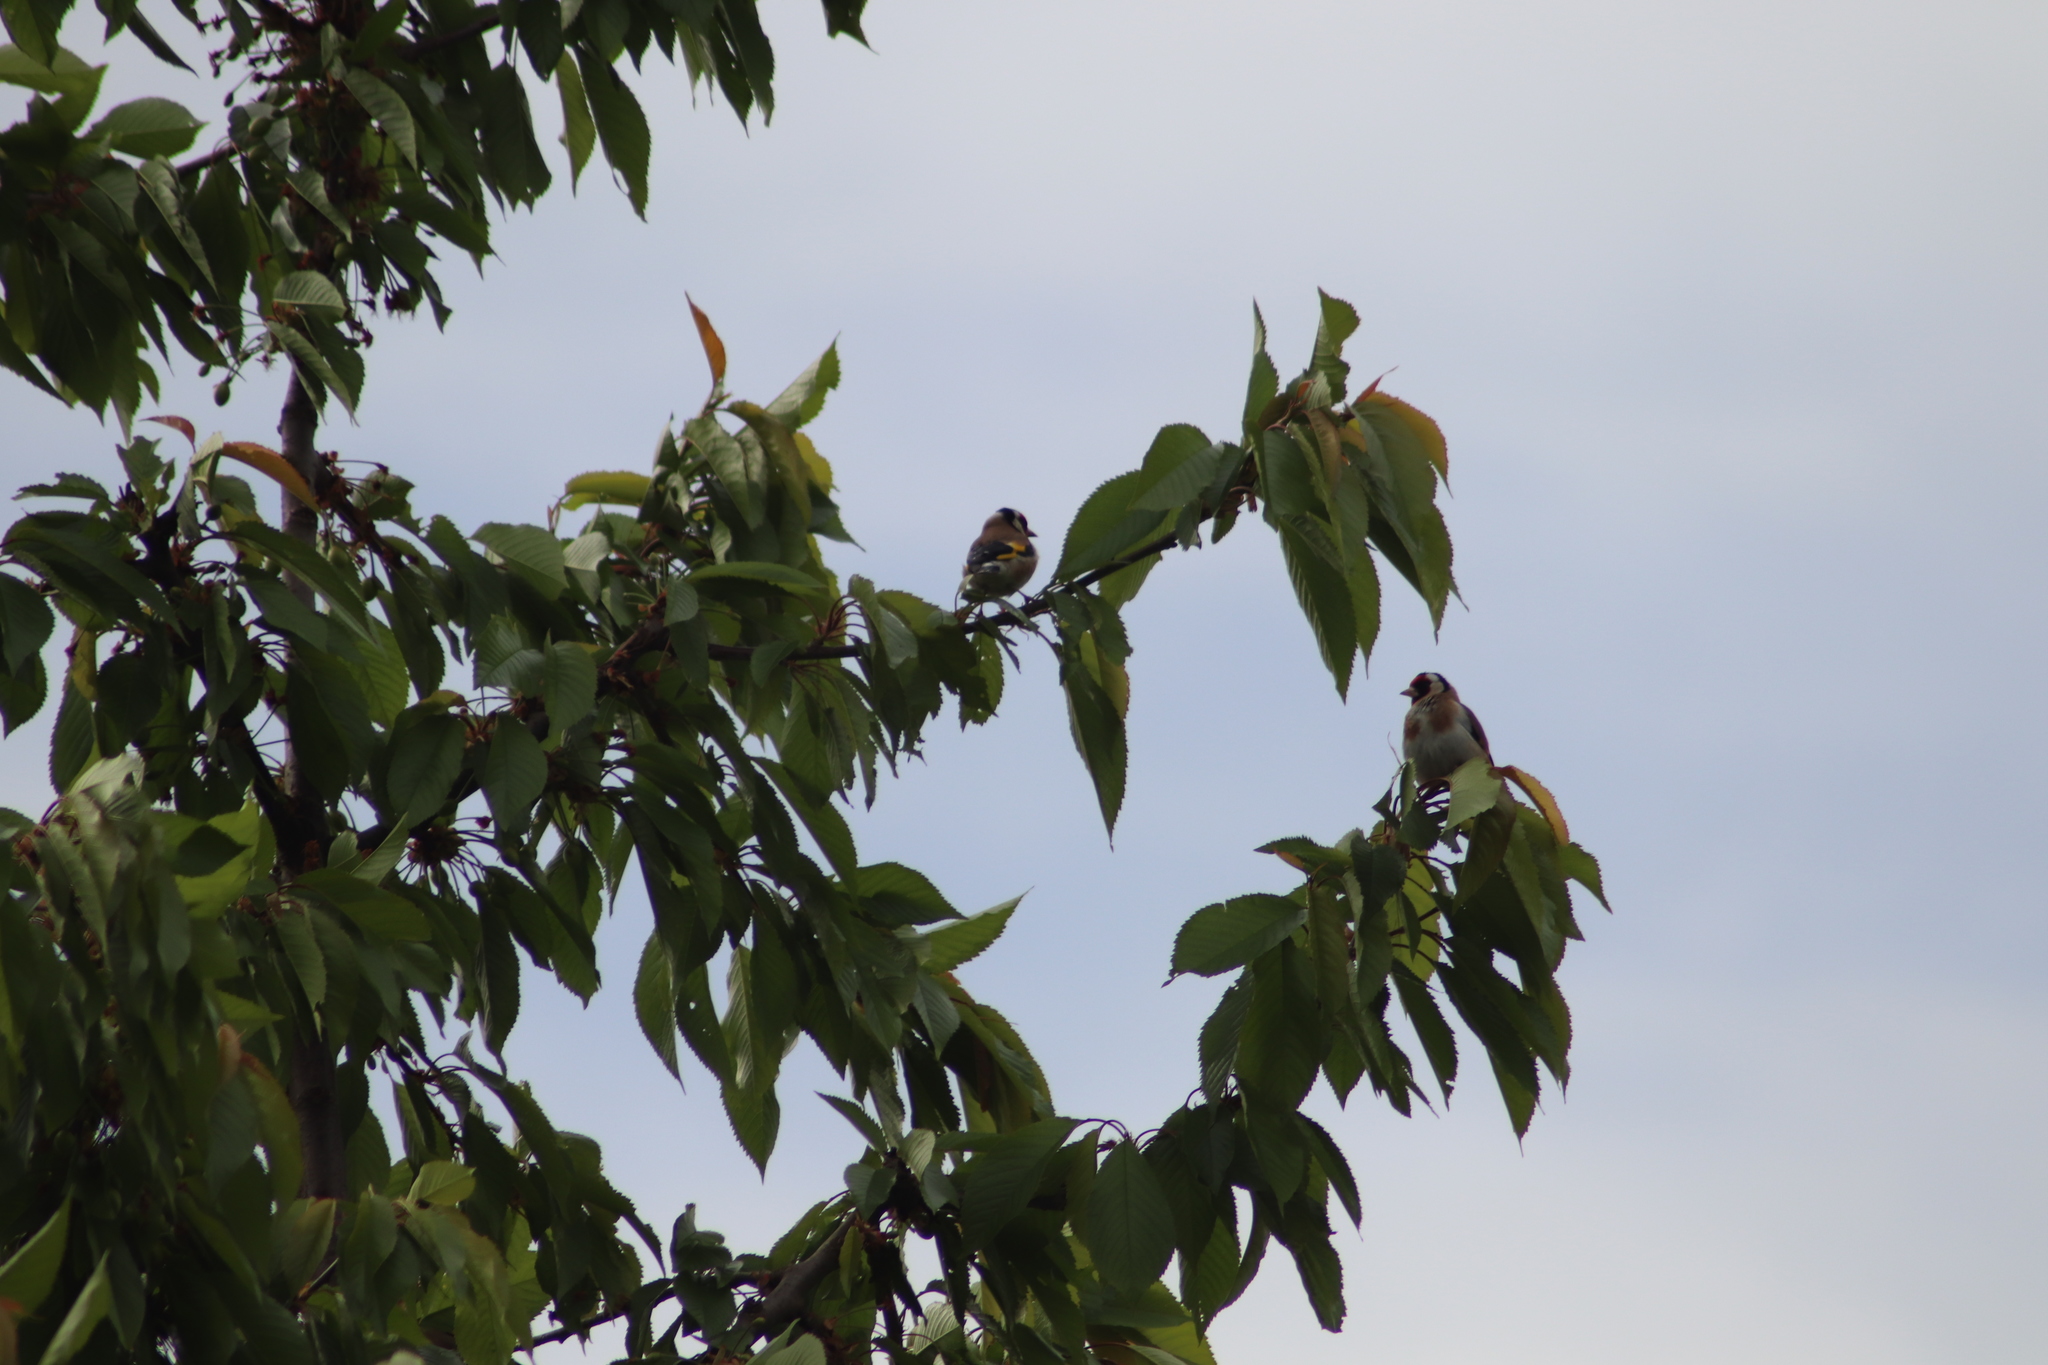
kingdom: Animalia
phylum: Chordata
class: Aves
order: Passeriformes
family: Fringillidae
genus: Carduelis
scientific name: Carduelis carduelis
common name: European goldfinch
